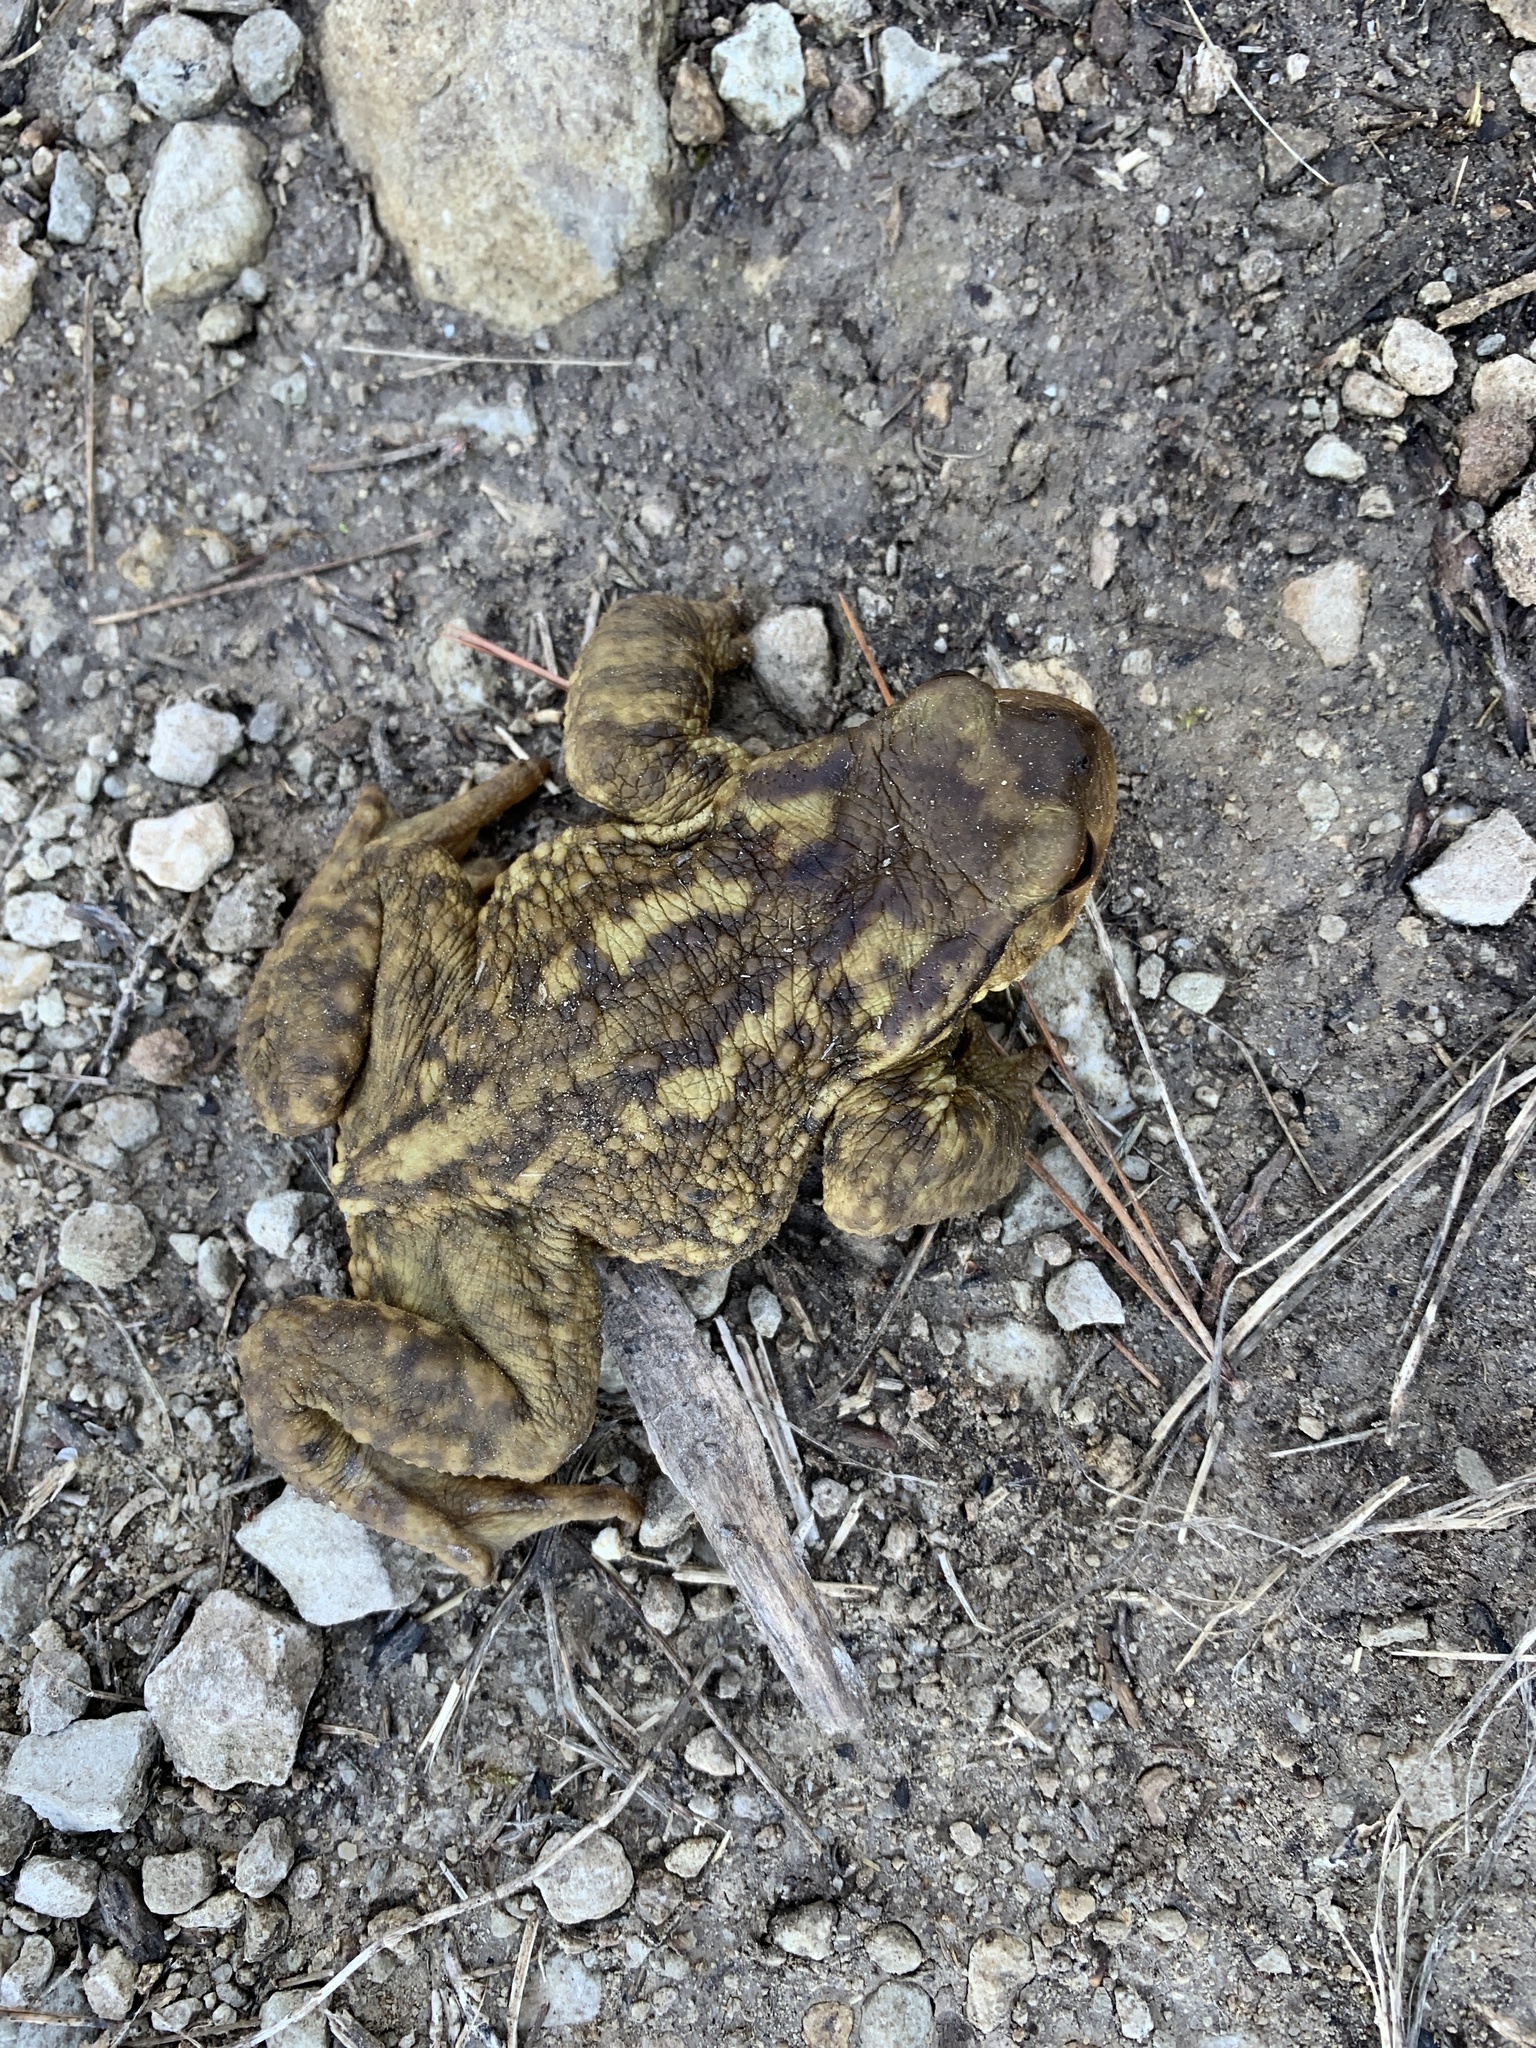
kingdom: Animalia
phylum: Chordata
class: Amphibia
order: Anura
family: Bufonidae
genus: Bufo
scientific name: Bufo spinosus
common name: Western common toad
